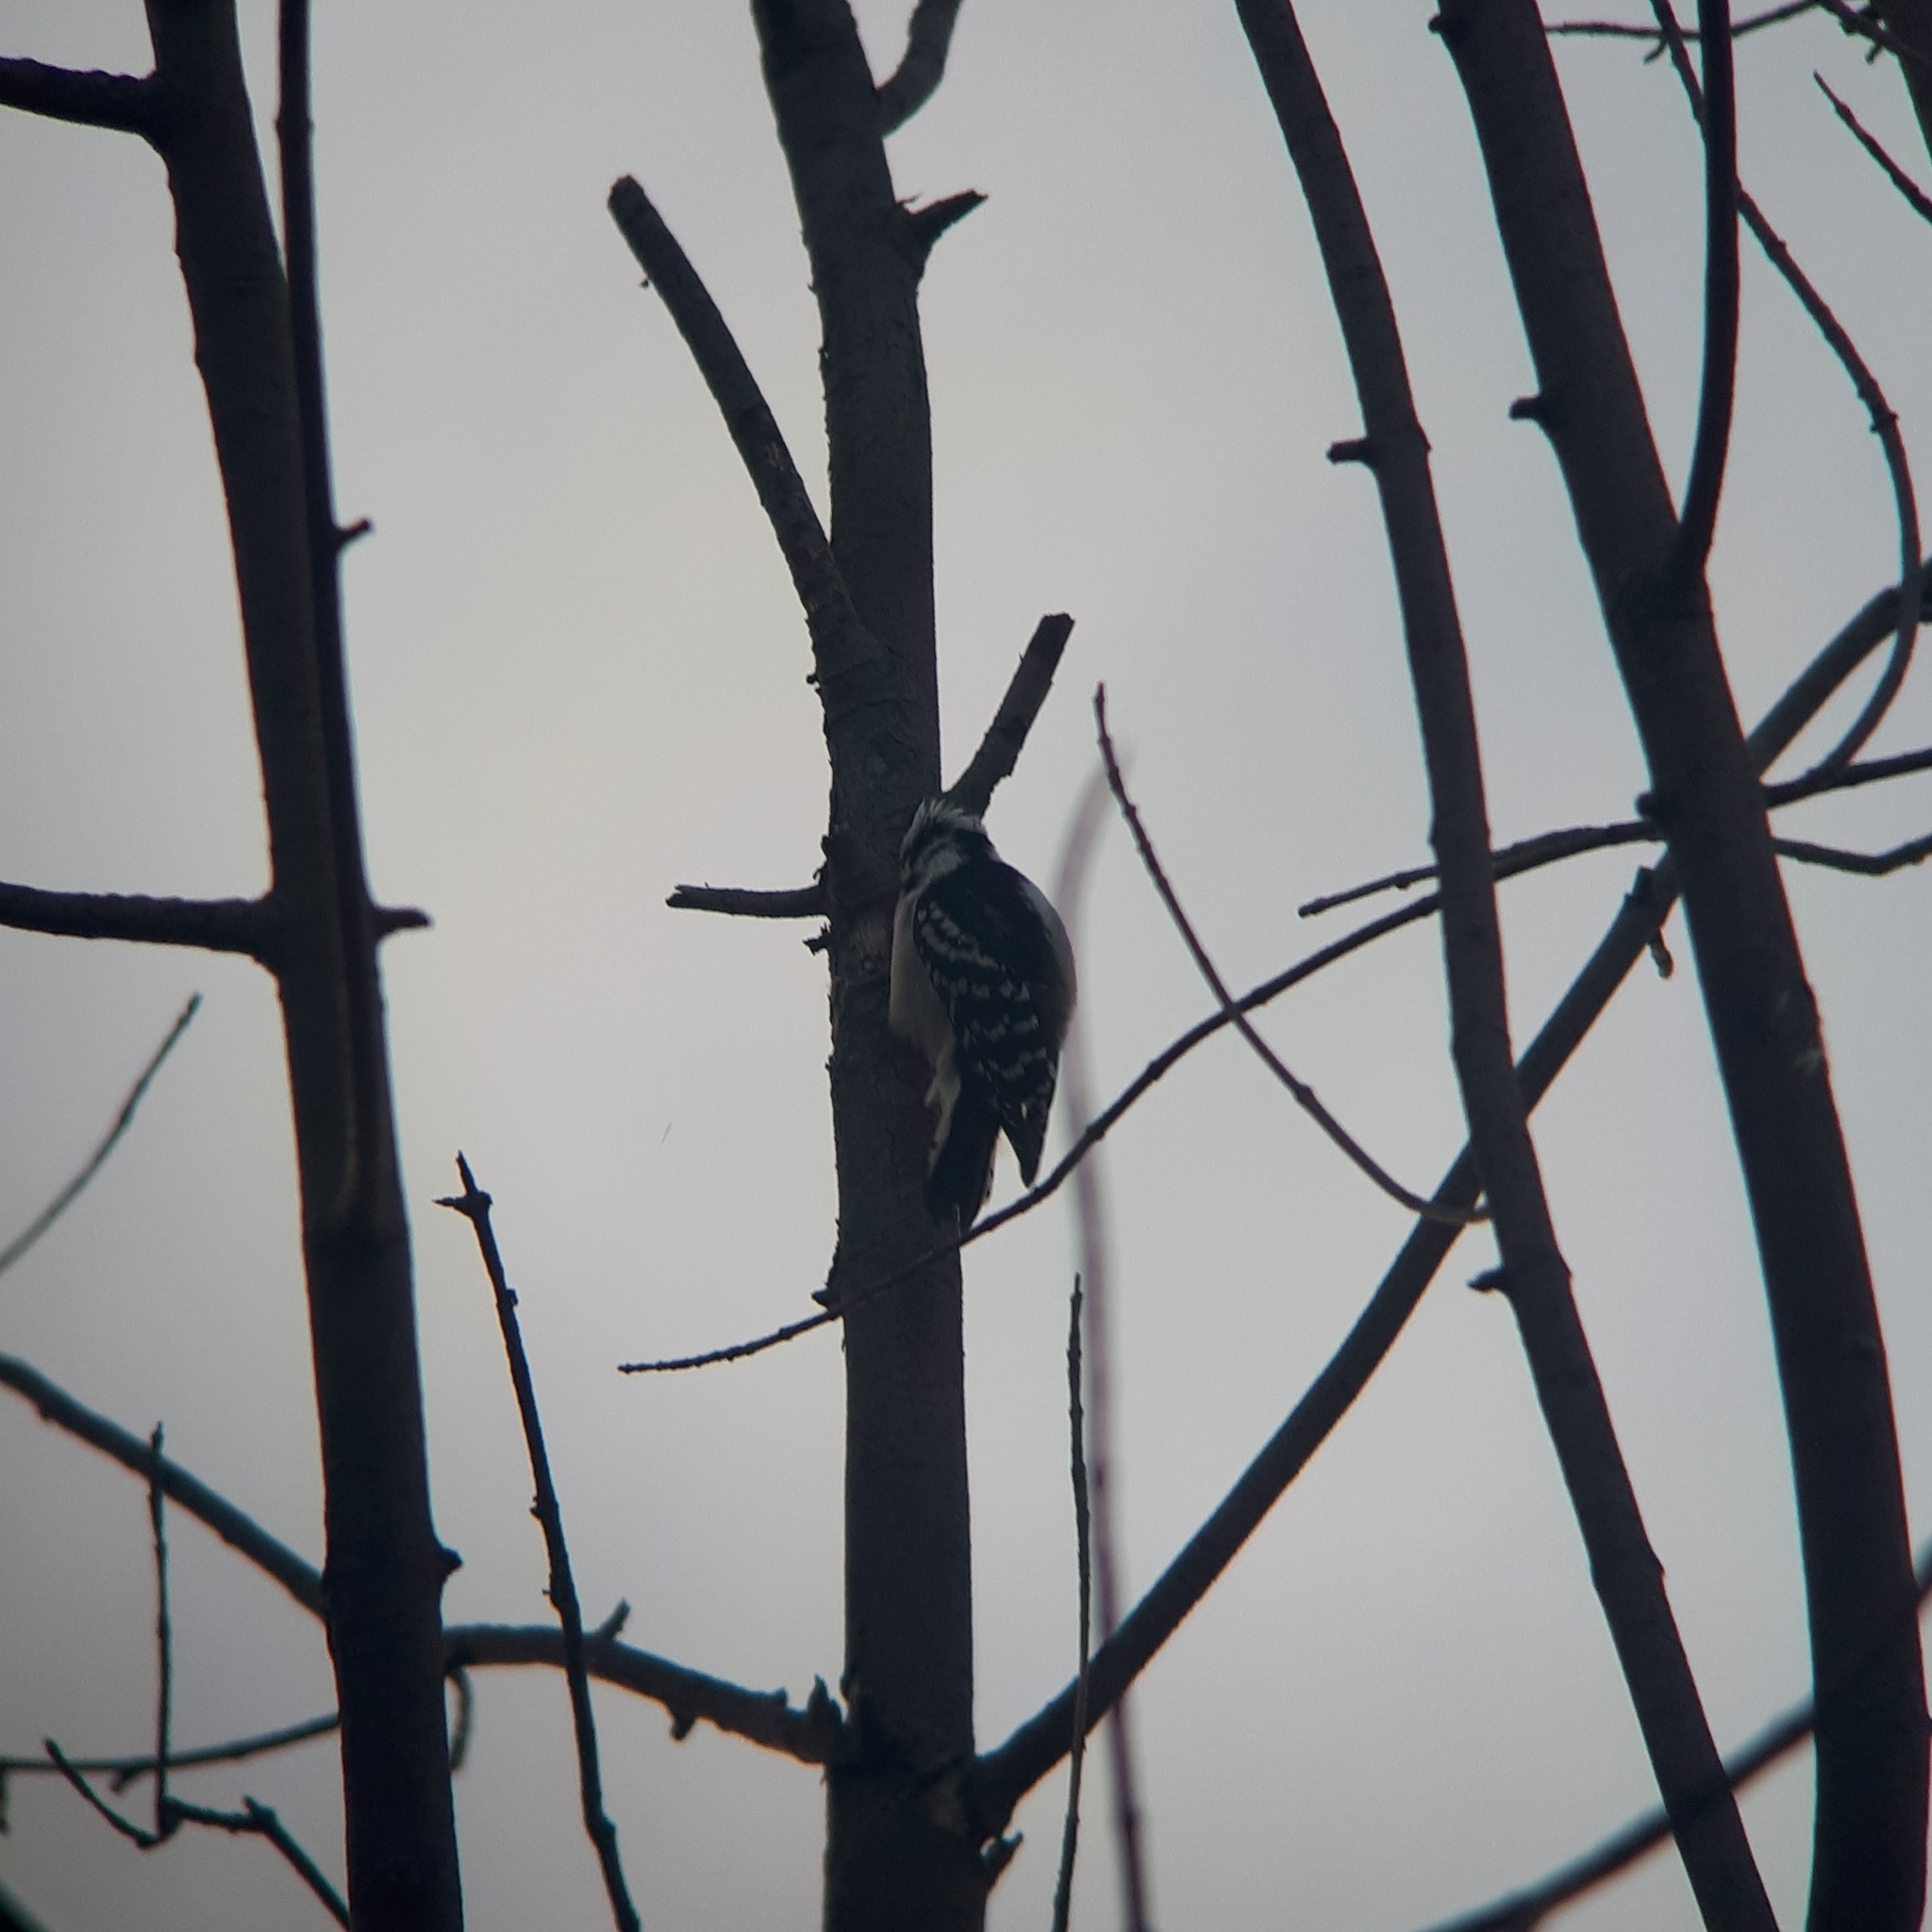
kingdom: Animalia
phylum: Chordata
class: Aves
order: Piciformes
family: Picidae
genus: Dryobates
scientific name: Dryobates pubescens
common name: Downy woodpecker
